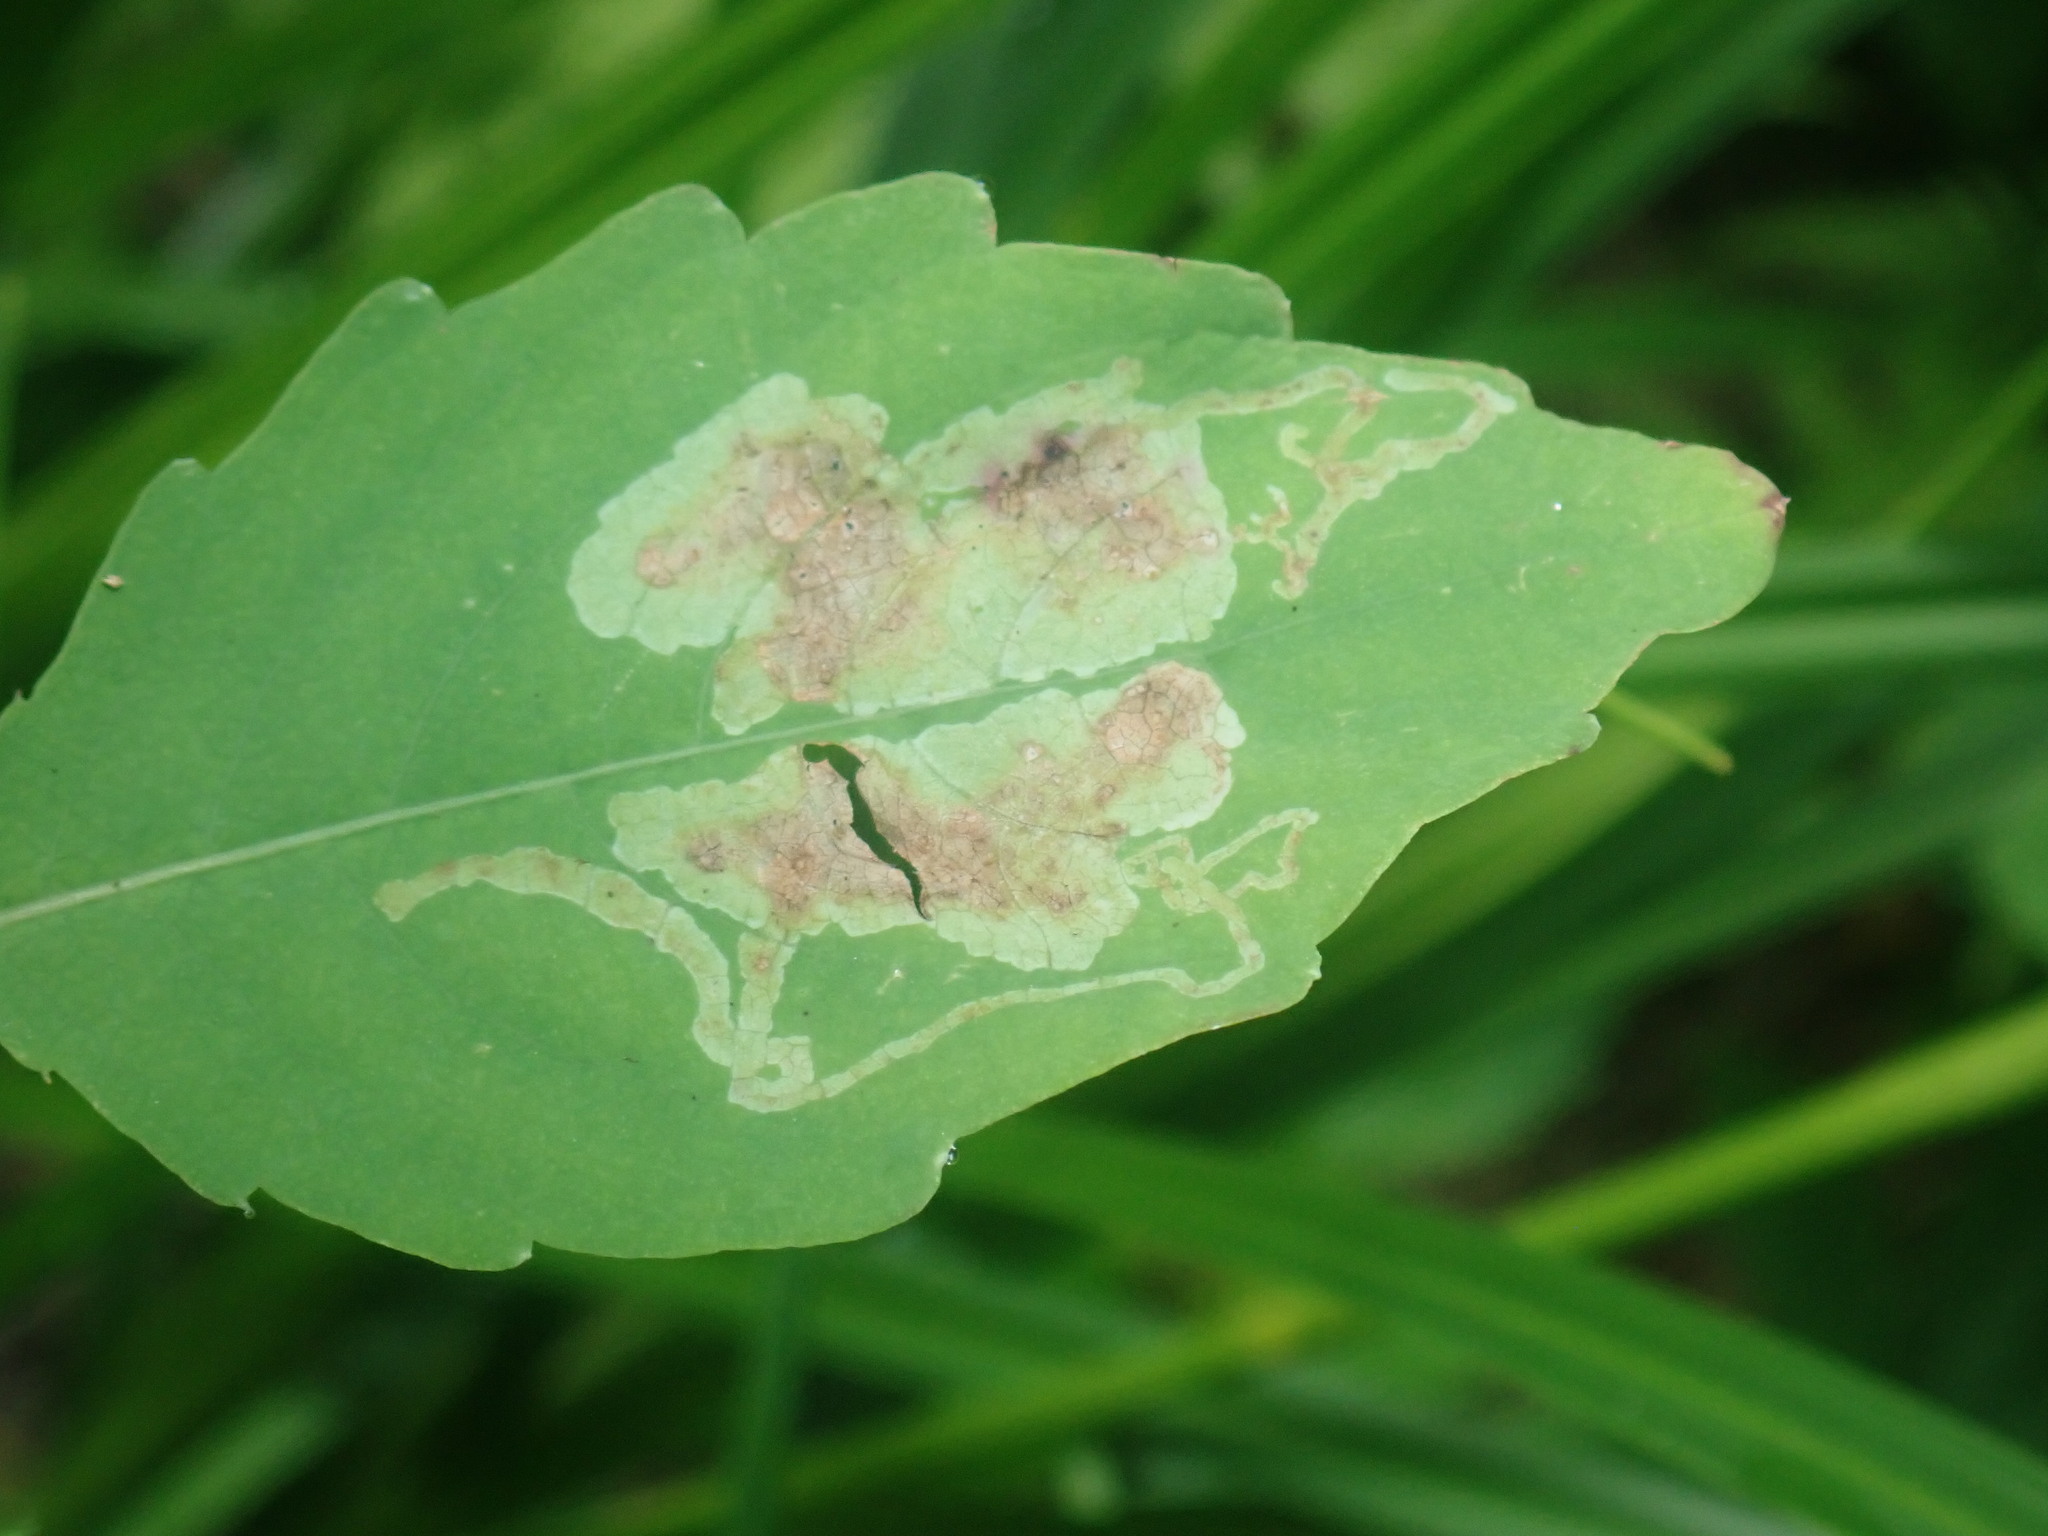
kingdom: Animalia
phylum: Arthropoda
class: Insecta
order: Diptera
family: Agromyzidae
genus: Phytoliriomyza
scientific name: Phytoliriomyza melampyga
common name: Jewelweed leaf-miner fly
